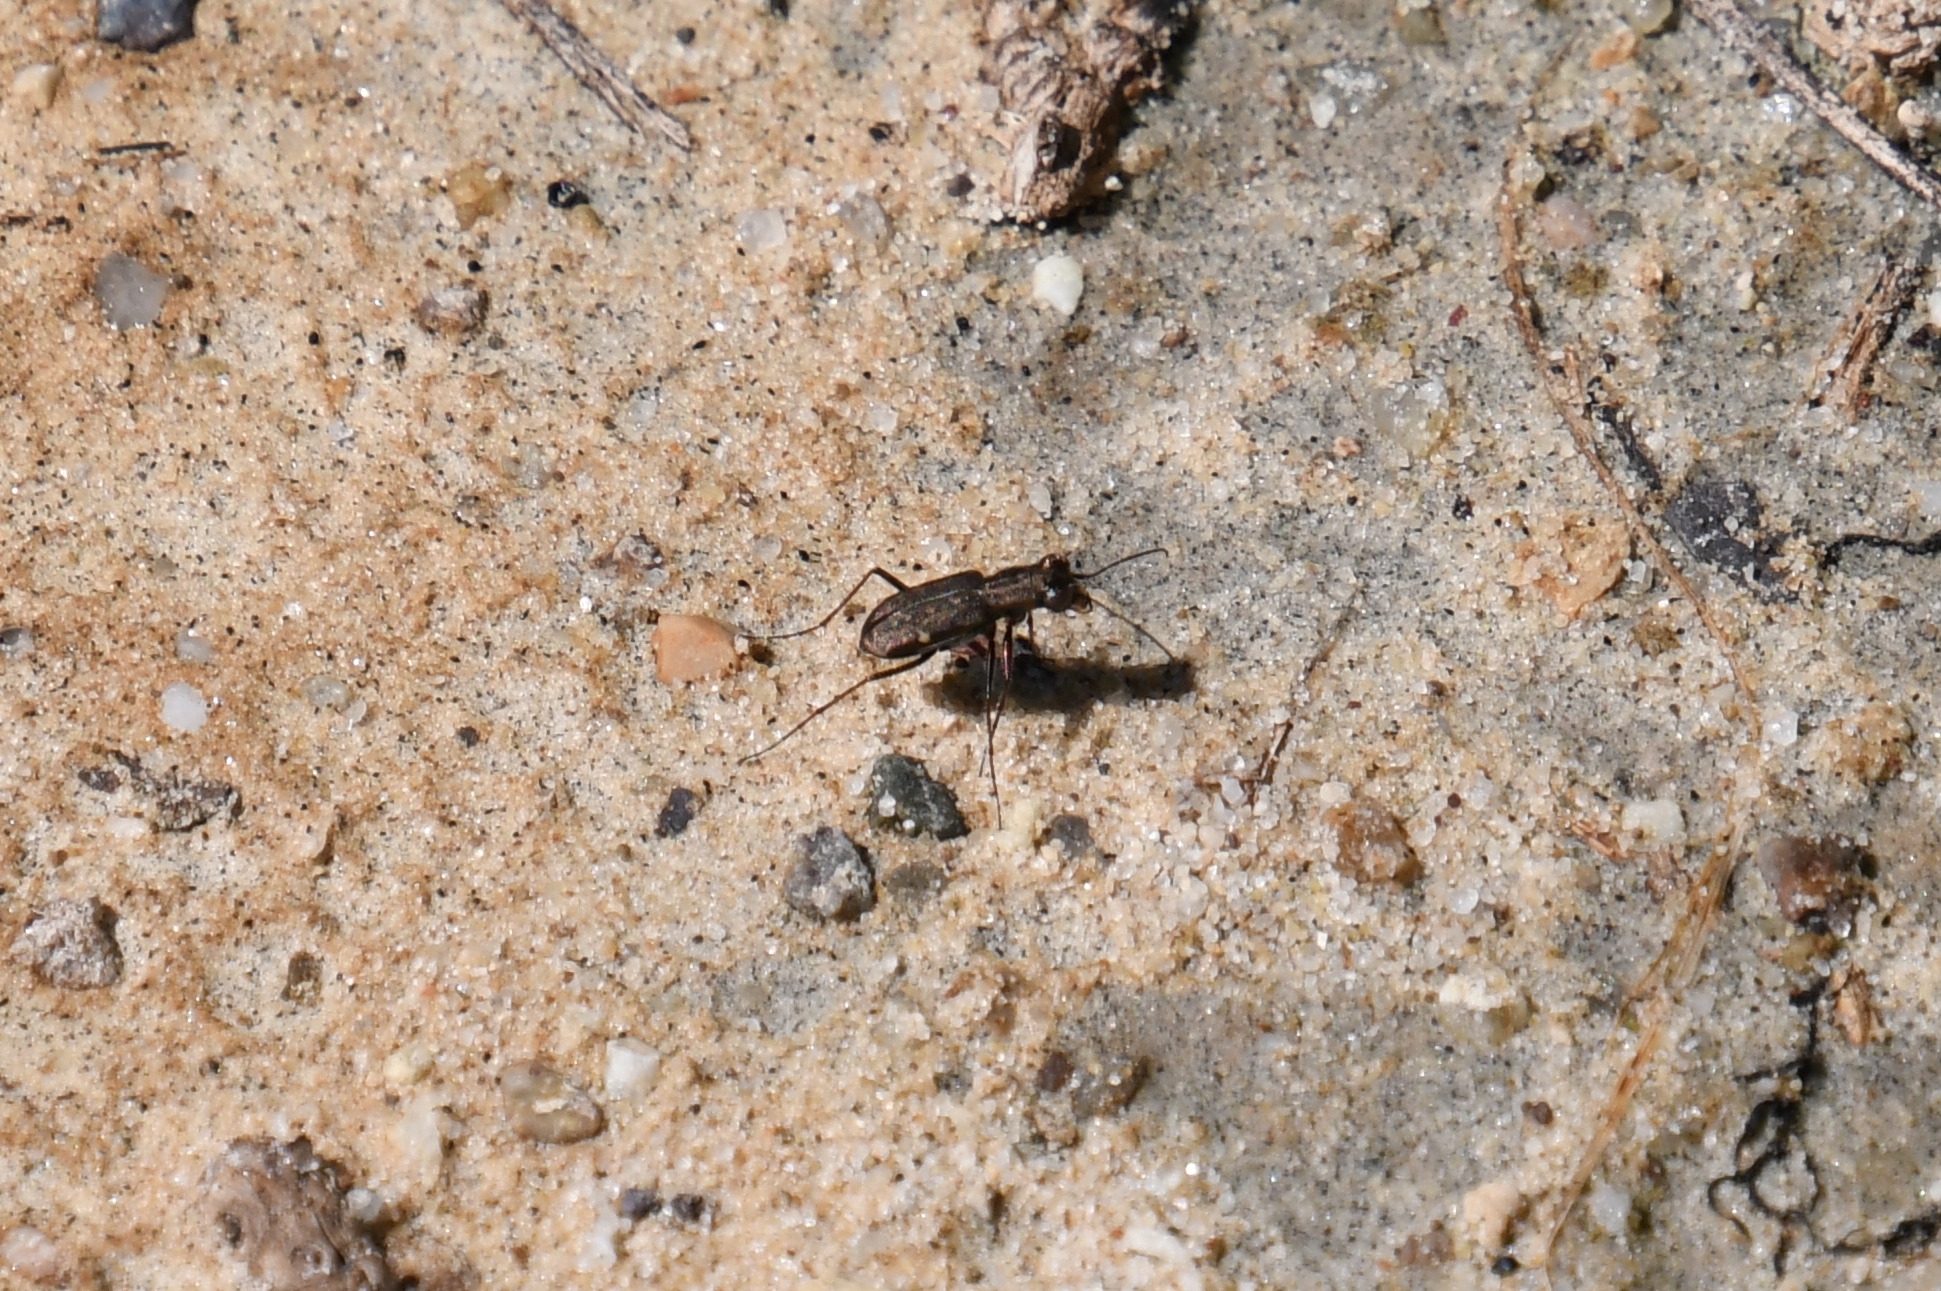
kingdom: Animalia
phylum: Arthropoda
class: Insecta
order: Coleoptera
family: Carabidae
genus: Brasiella
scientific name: Brasiella viridisticta
